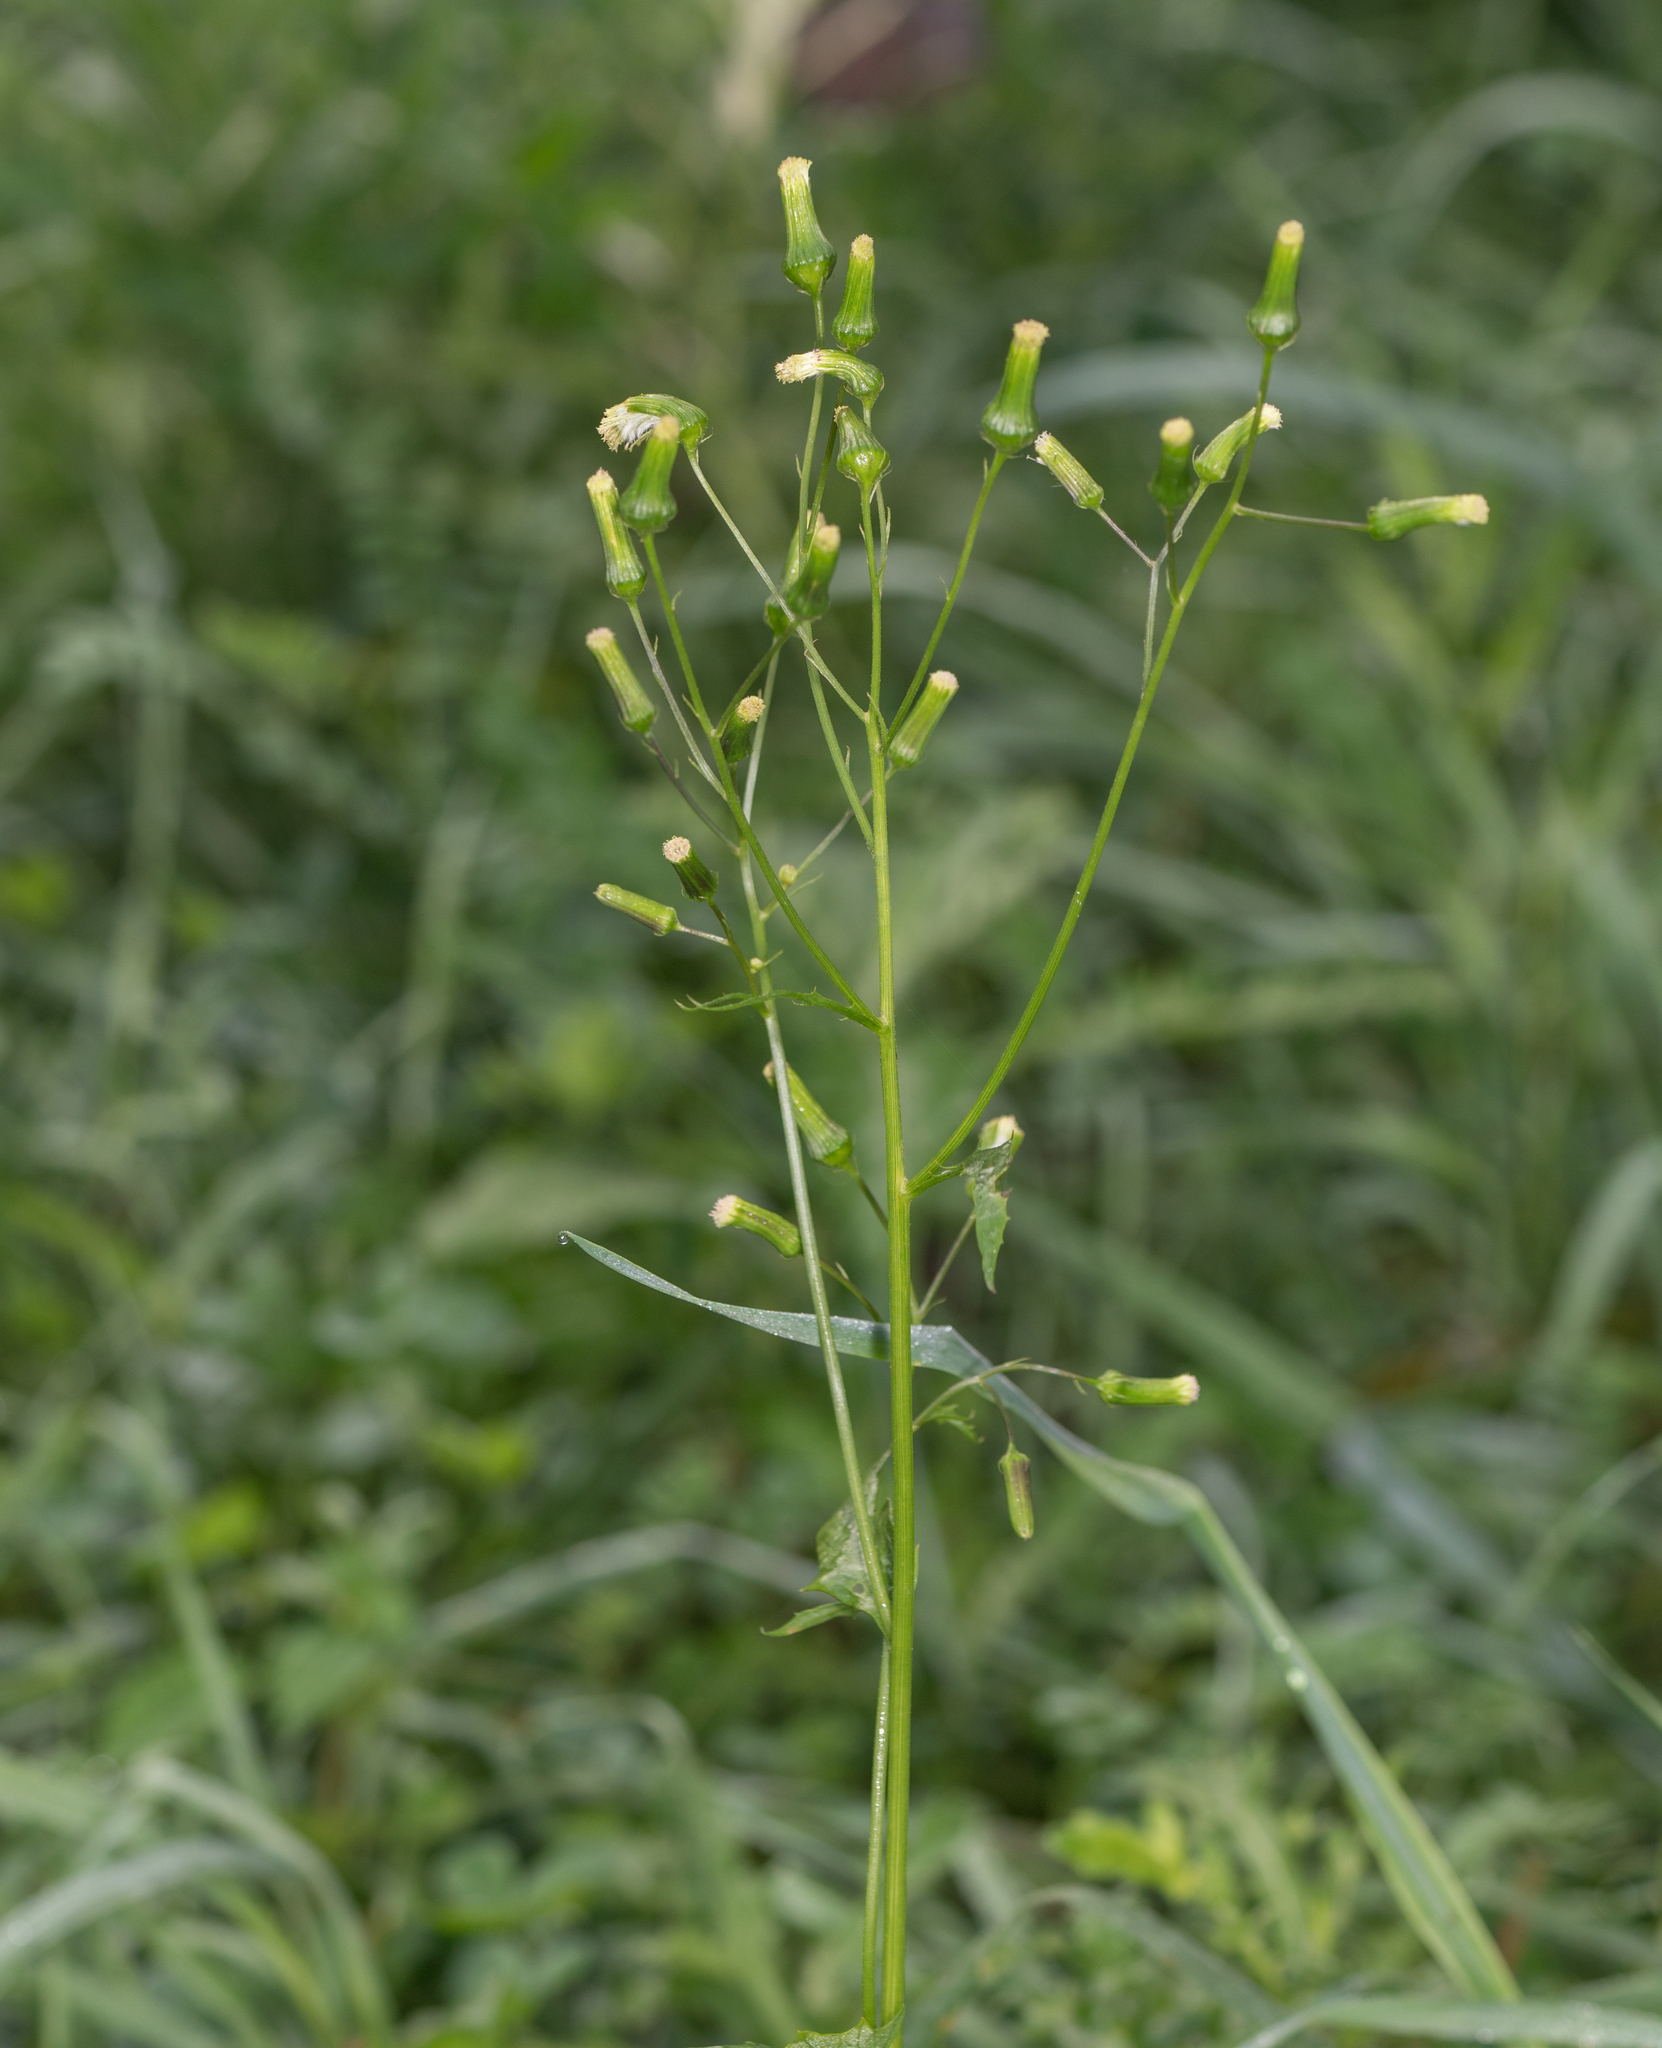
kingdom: Plantae
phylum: Tracheophyta
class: Magnoliopsida
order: Asterales
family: Asteraceae
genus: Erechtites
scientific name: Erechtites hieraciifolius
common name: American burnweed
